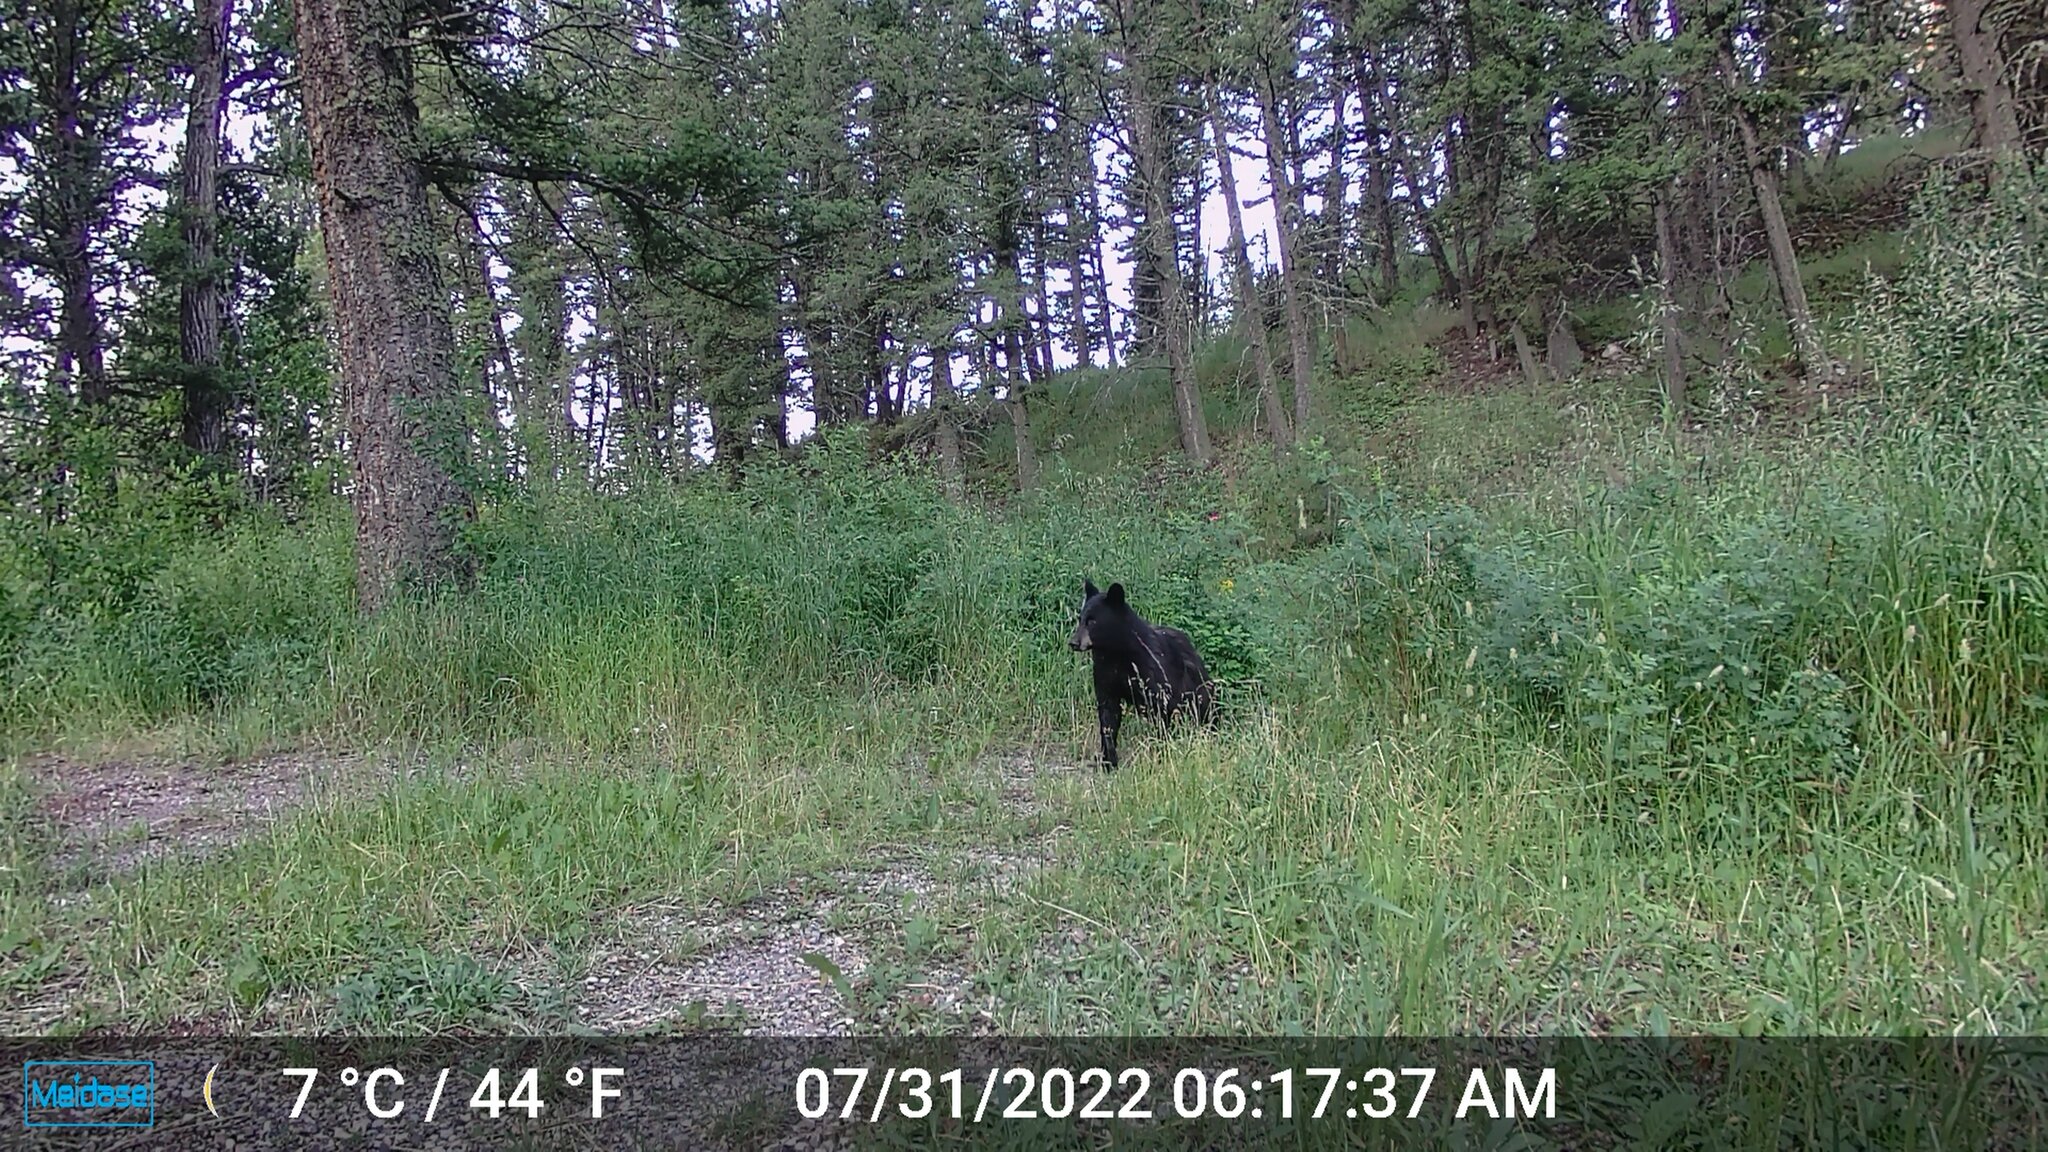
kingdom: Animalia
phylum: Chordata
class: Mammalia
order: Carnivora
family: Ursidae
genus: Ursus
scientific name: Ursus americanus
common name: American black bear
